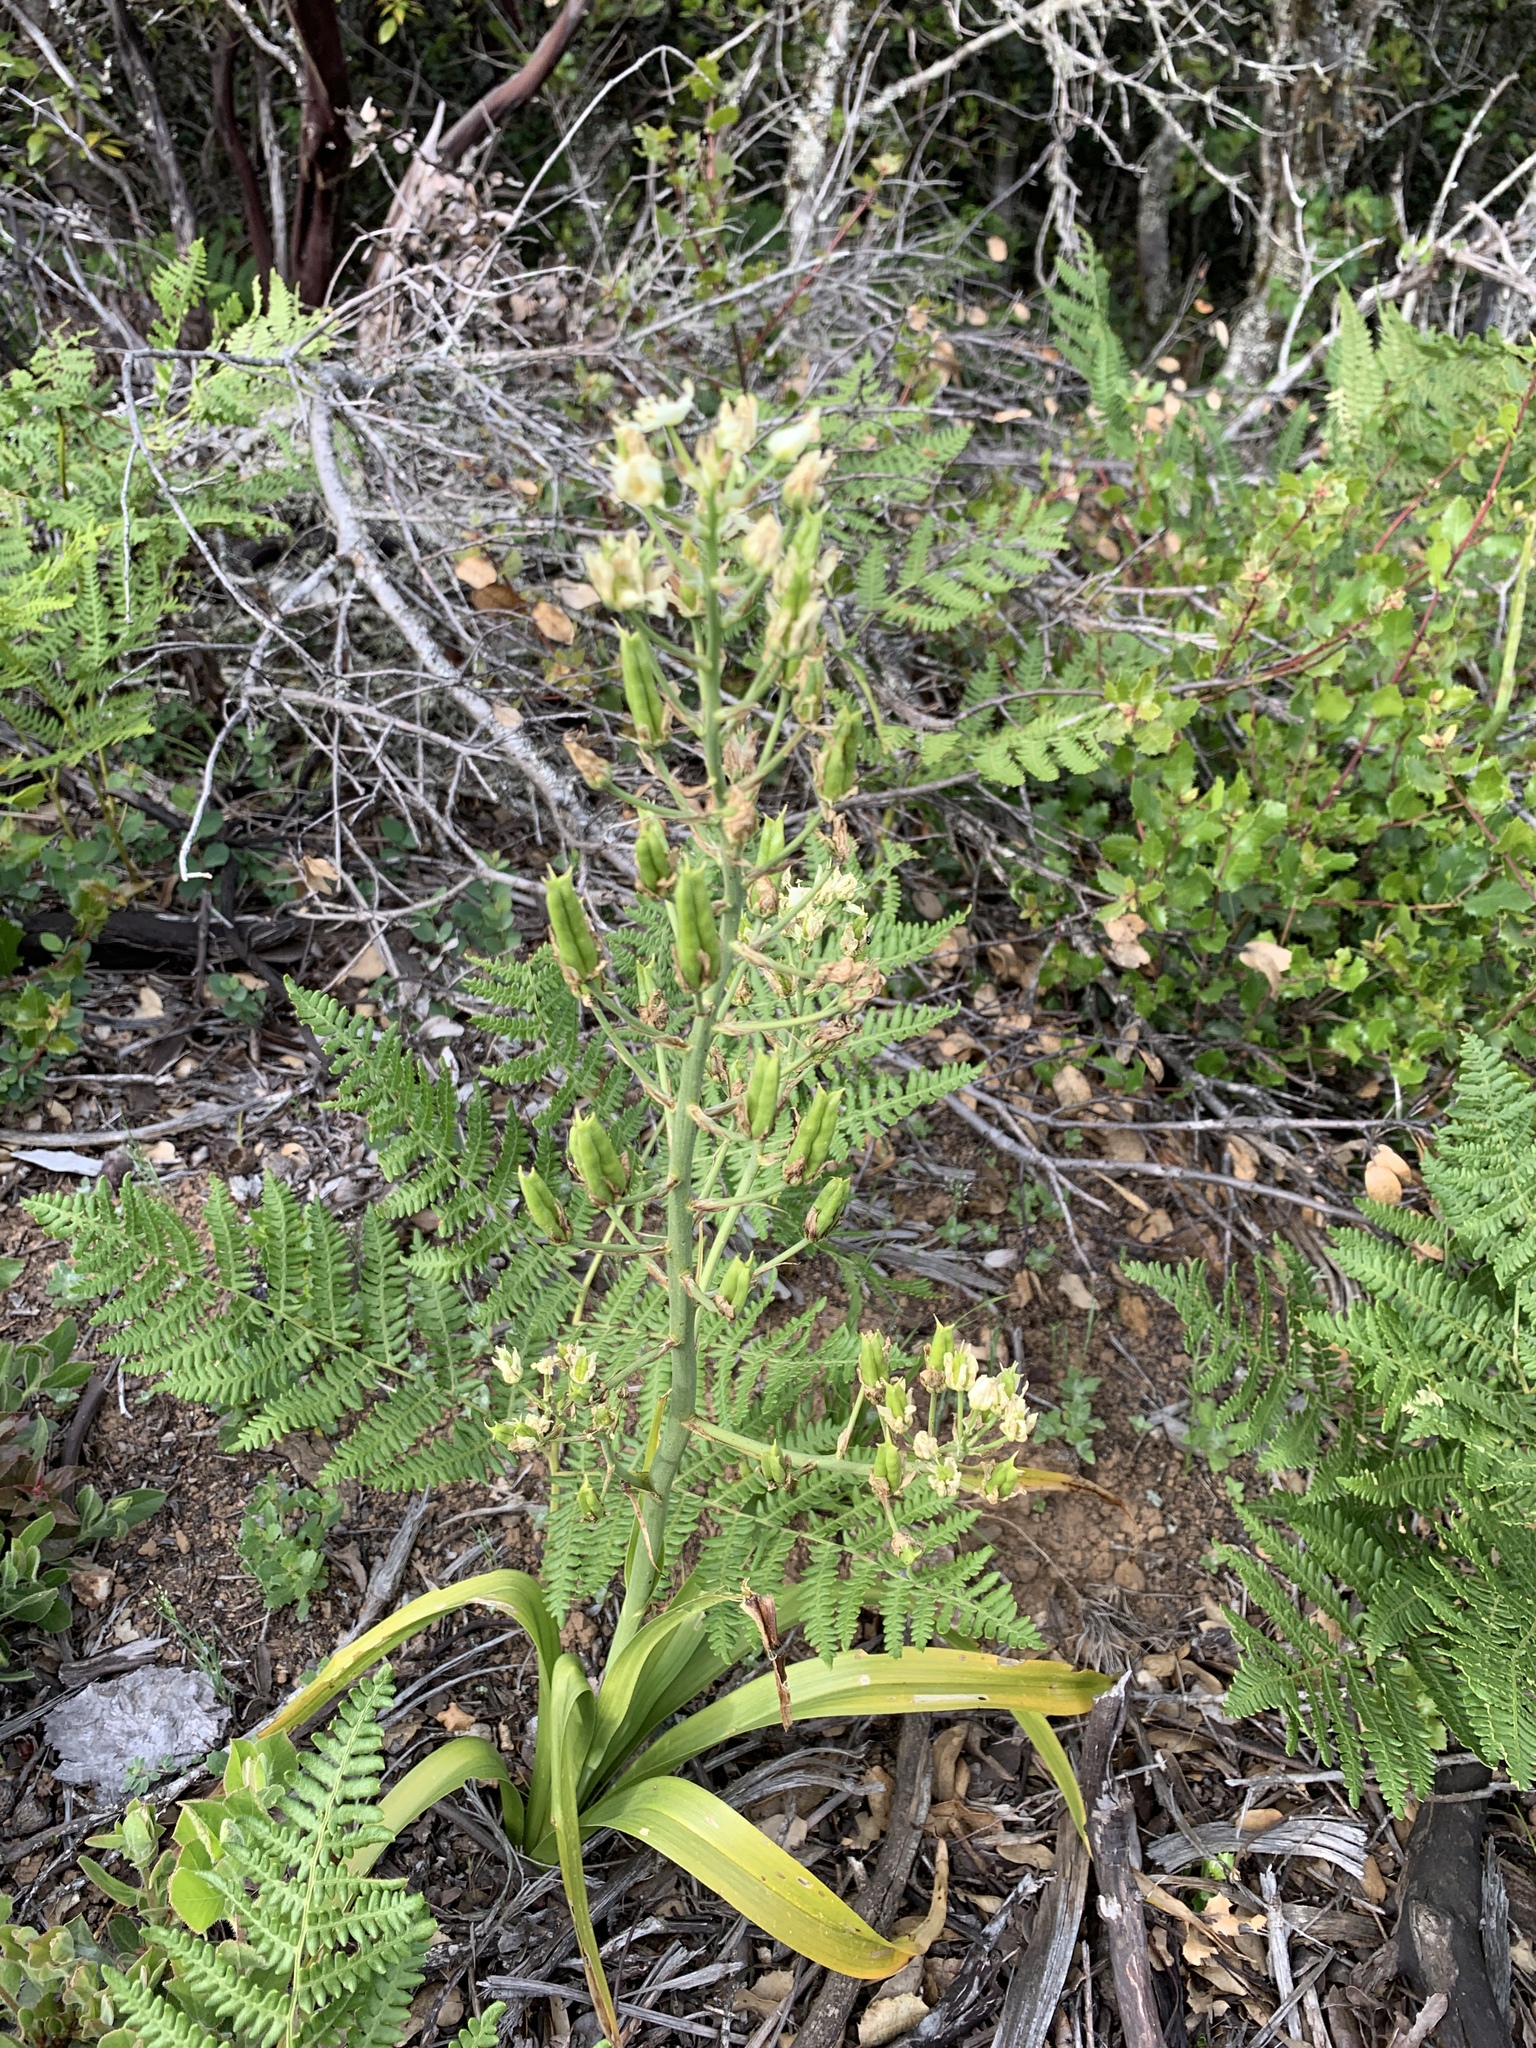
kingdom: Plantae
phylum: Tracheophyta
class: Liliopsida
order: Liliales
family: Melanthiaceae
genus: Toxicoscordion
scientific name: Toxicoscordion fremontii
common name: Fremont's death camas
